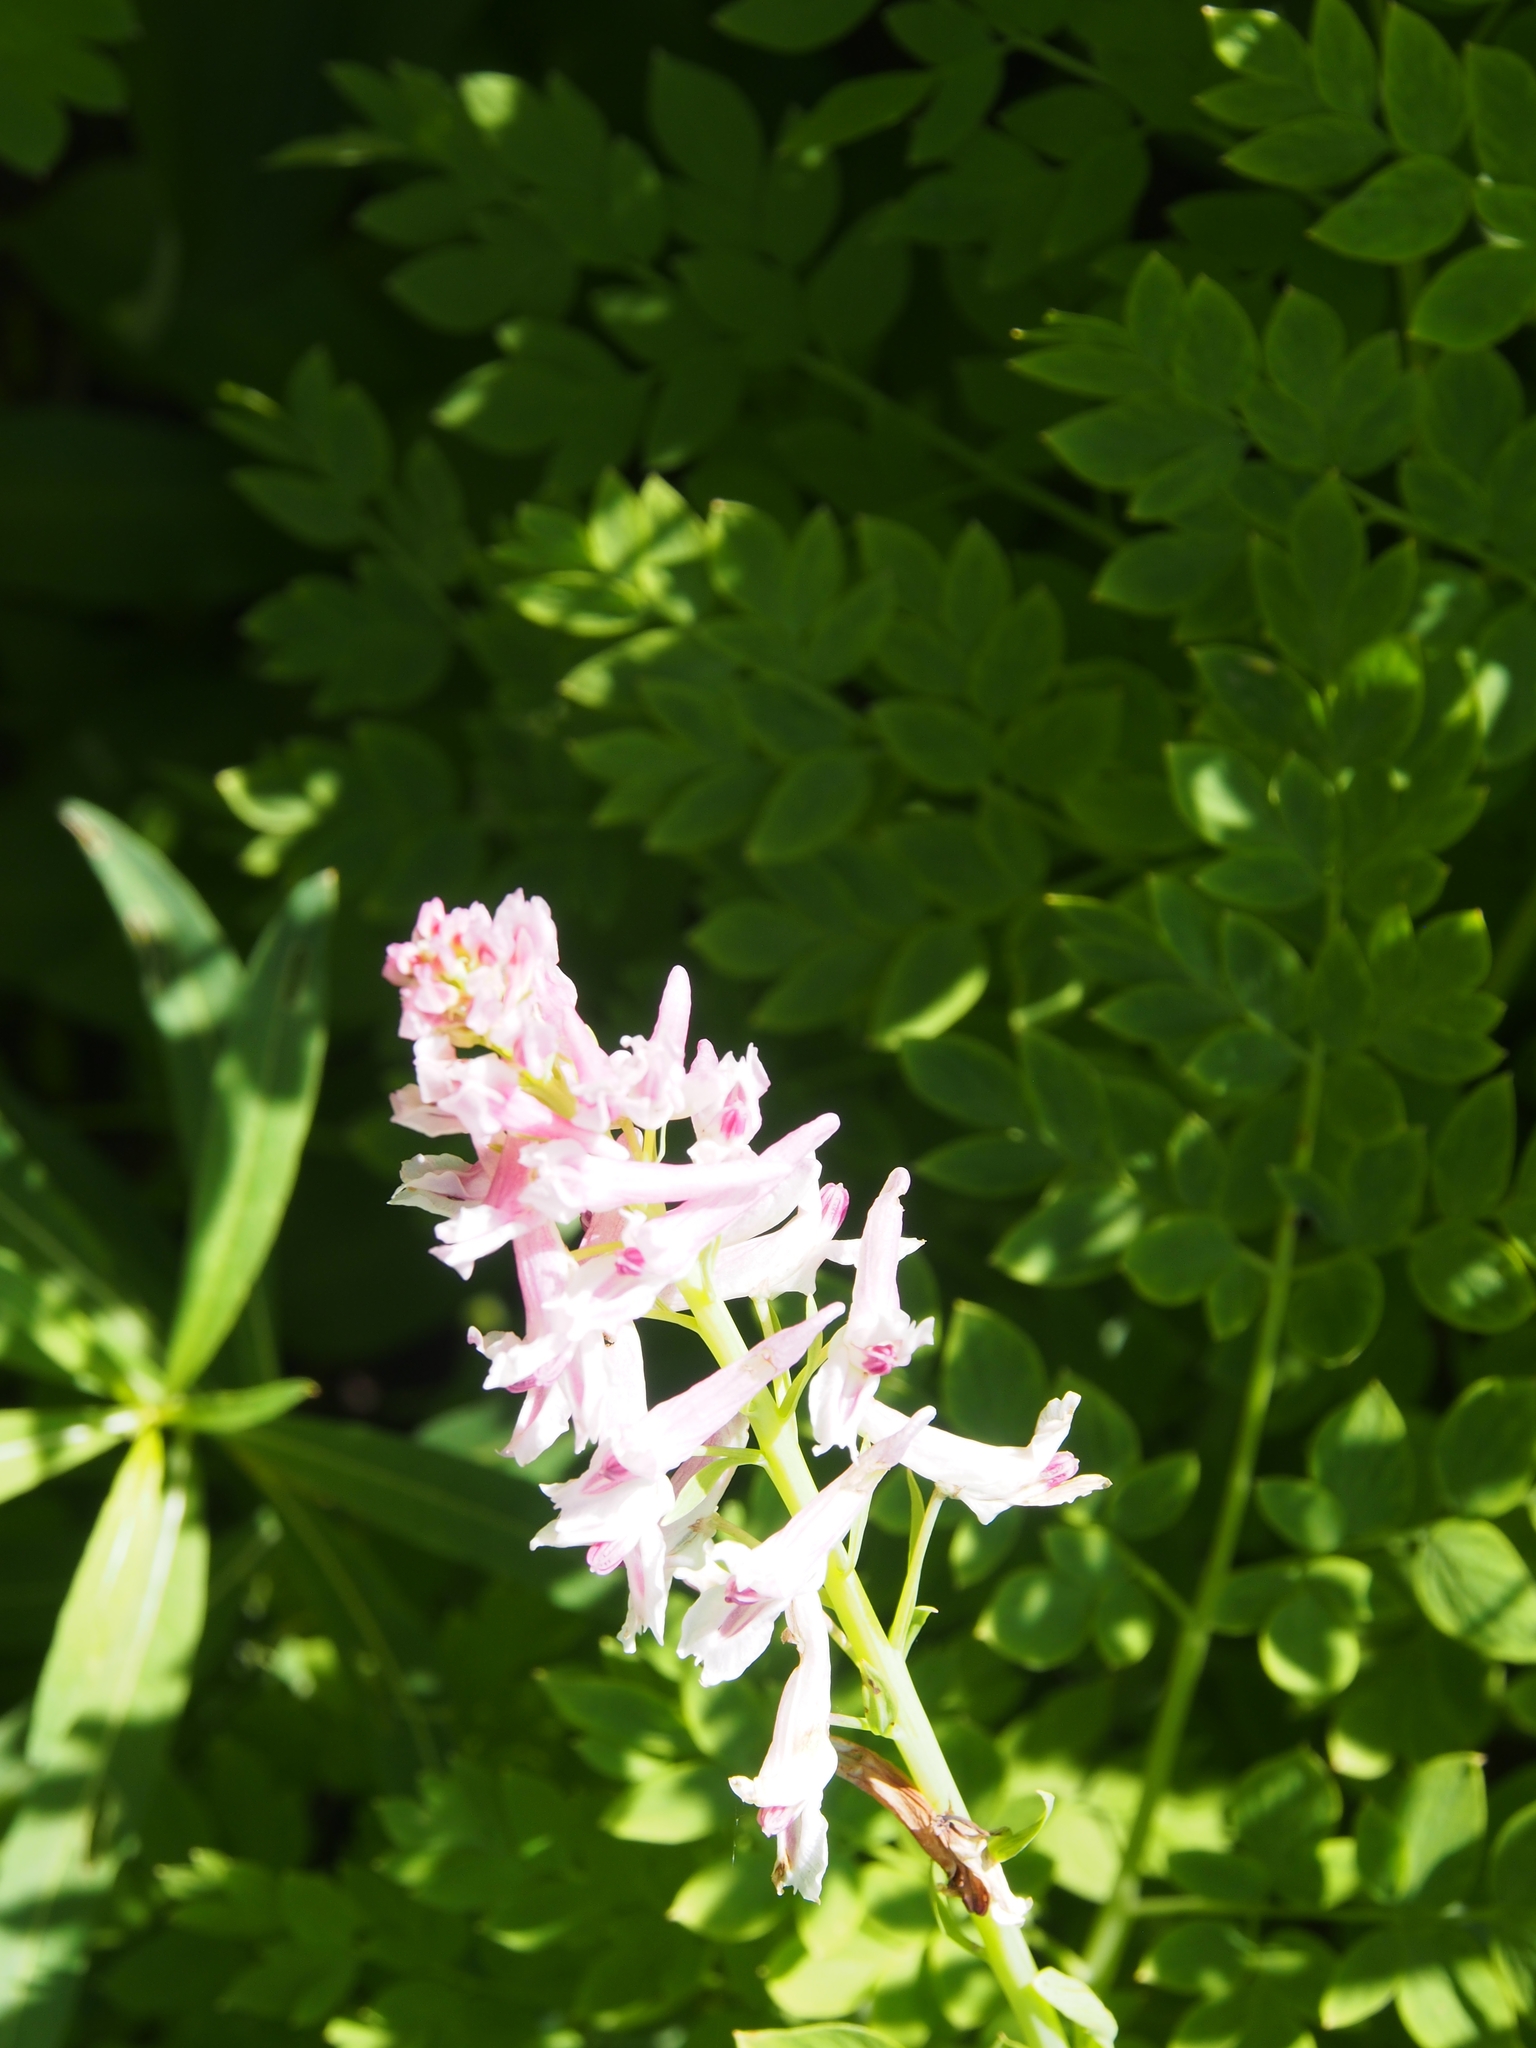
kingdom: Plantae
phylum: Tracheophyta
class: Magnoliopsida
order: Ranunculales
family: Papaveraceae
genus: Corydalis
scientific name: Corydalis caseana
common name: Fitweed
